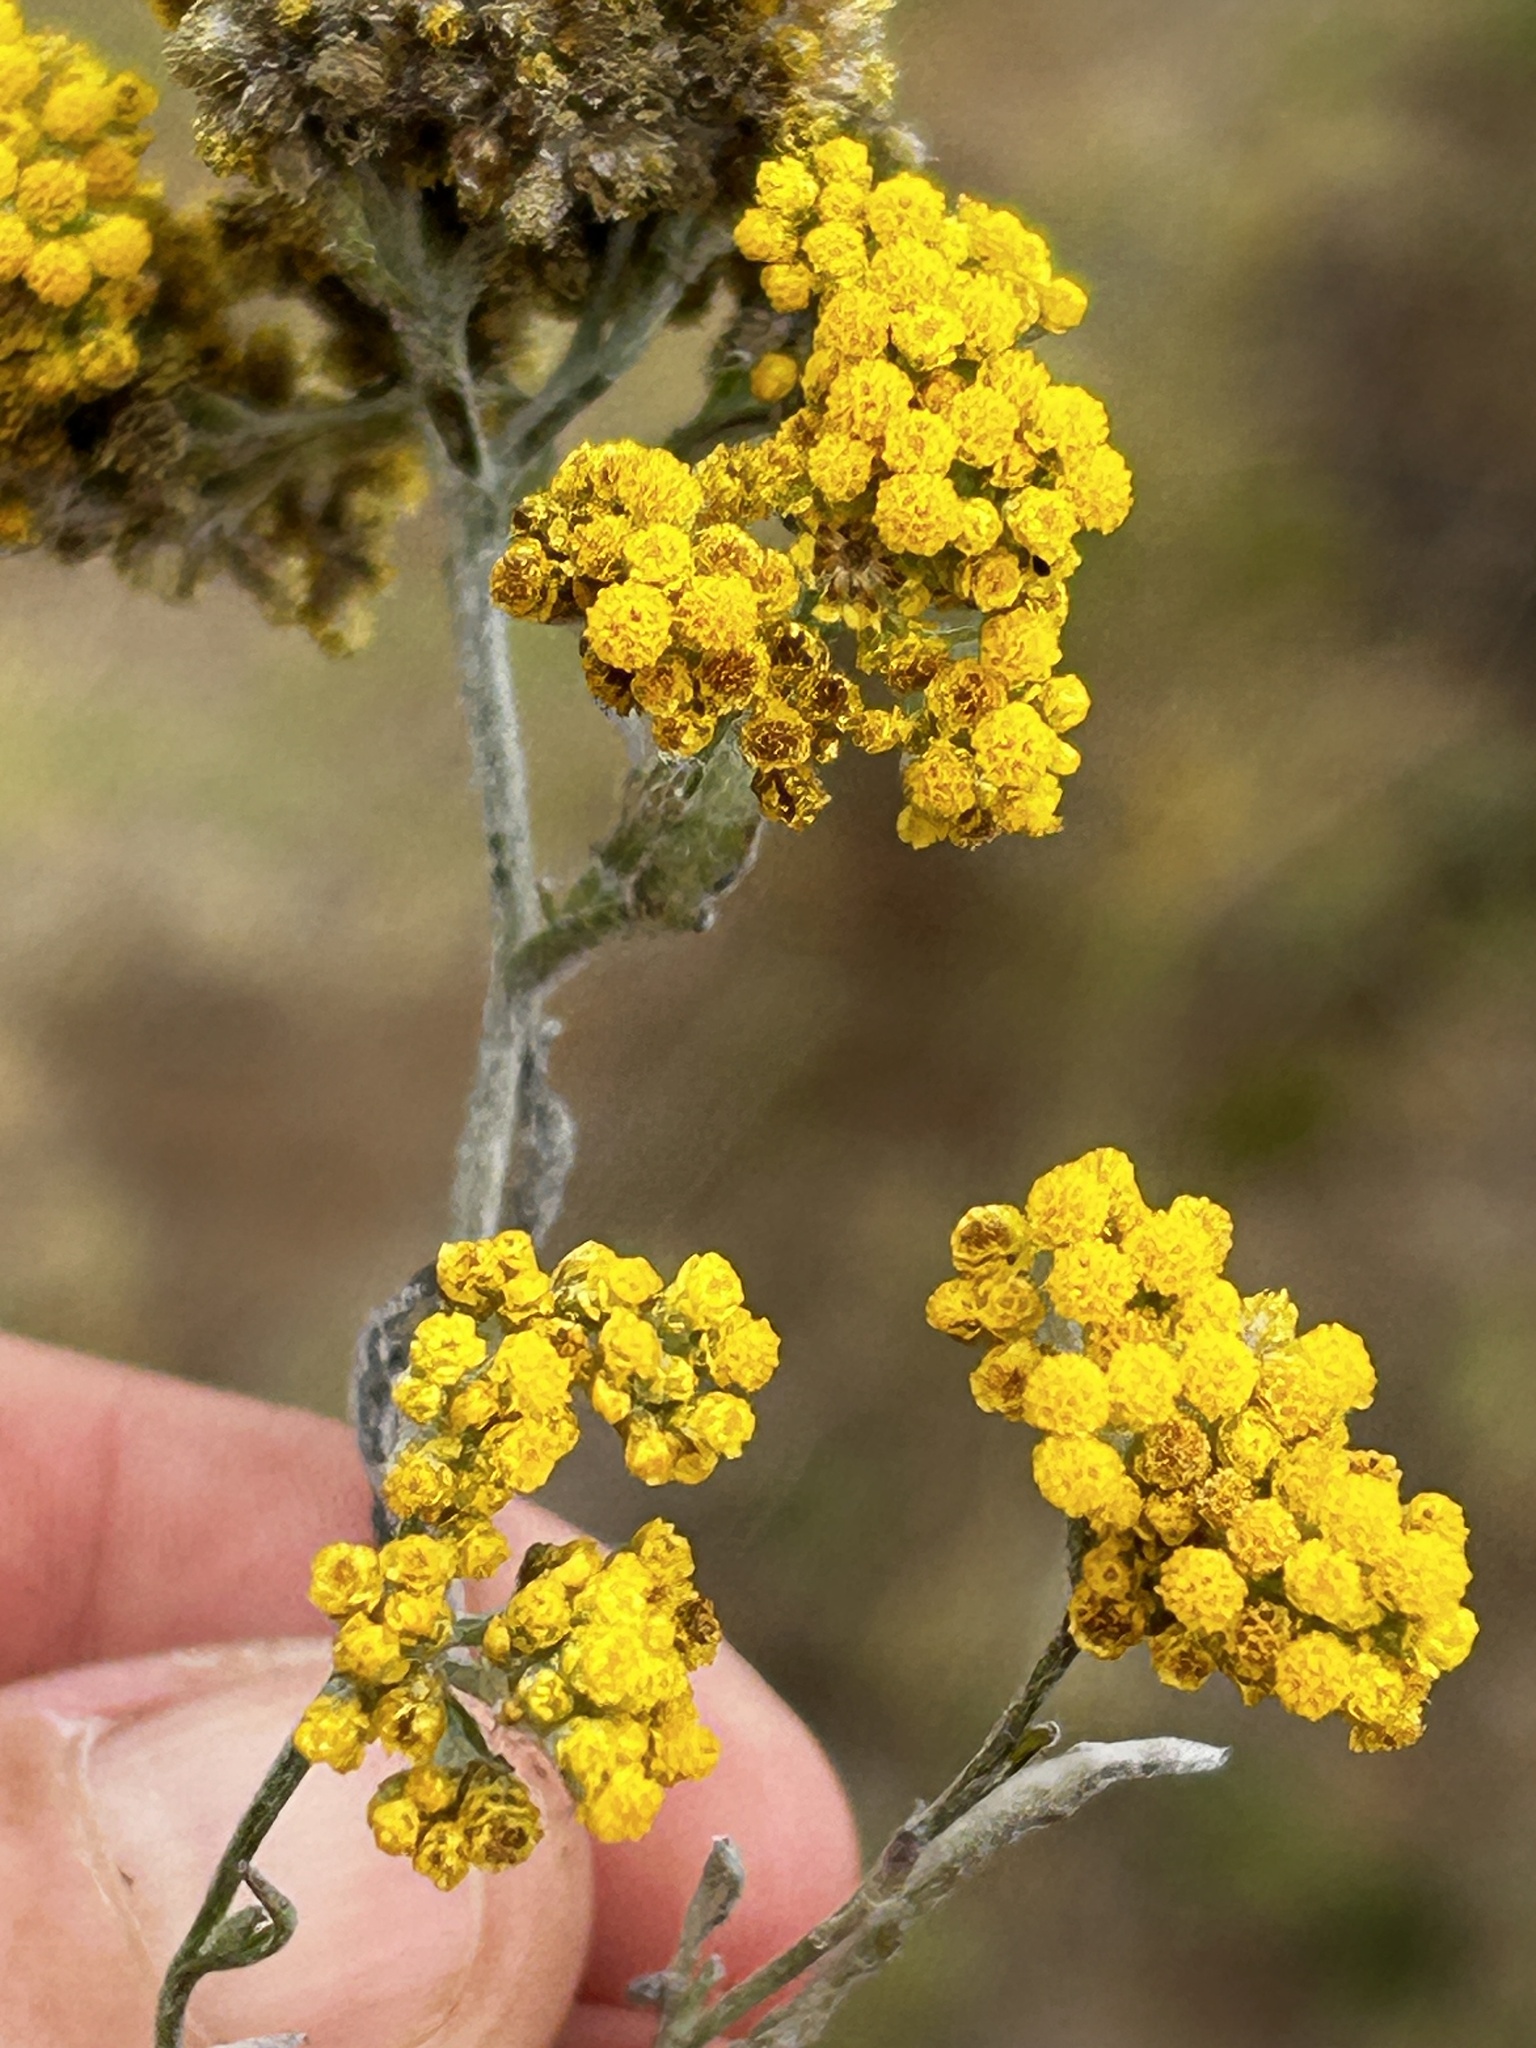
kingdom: Plantae
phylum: Tracheophyta
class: Magnoliopsida
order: Asterales
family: Asteraceae
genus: Helichrysum
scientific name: Helichrysum anomalum
